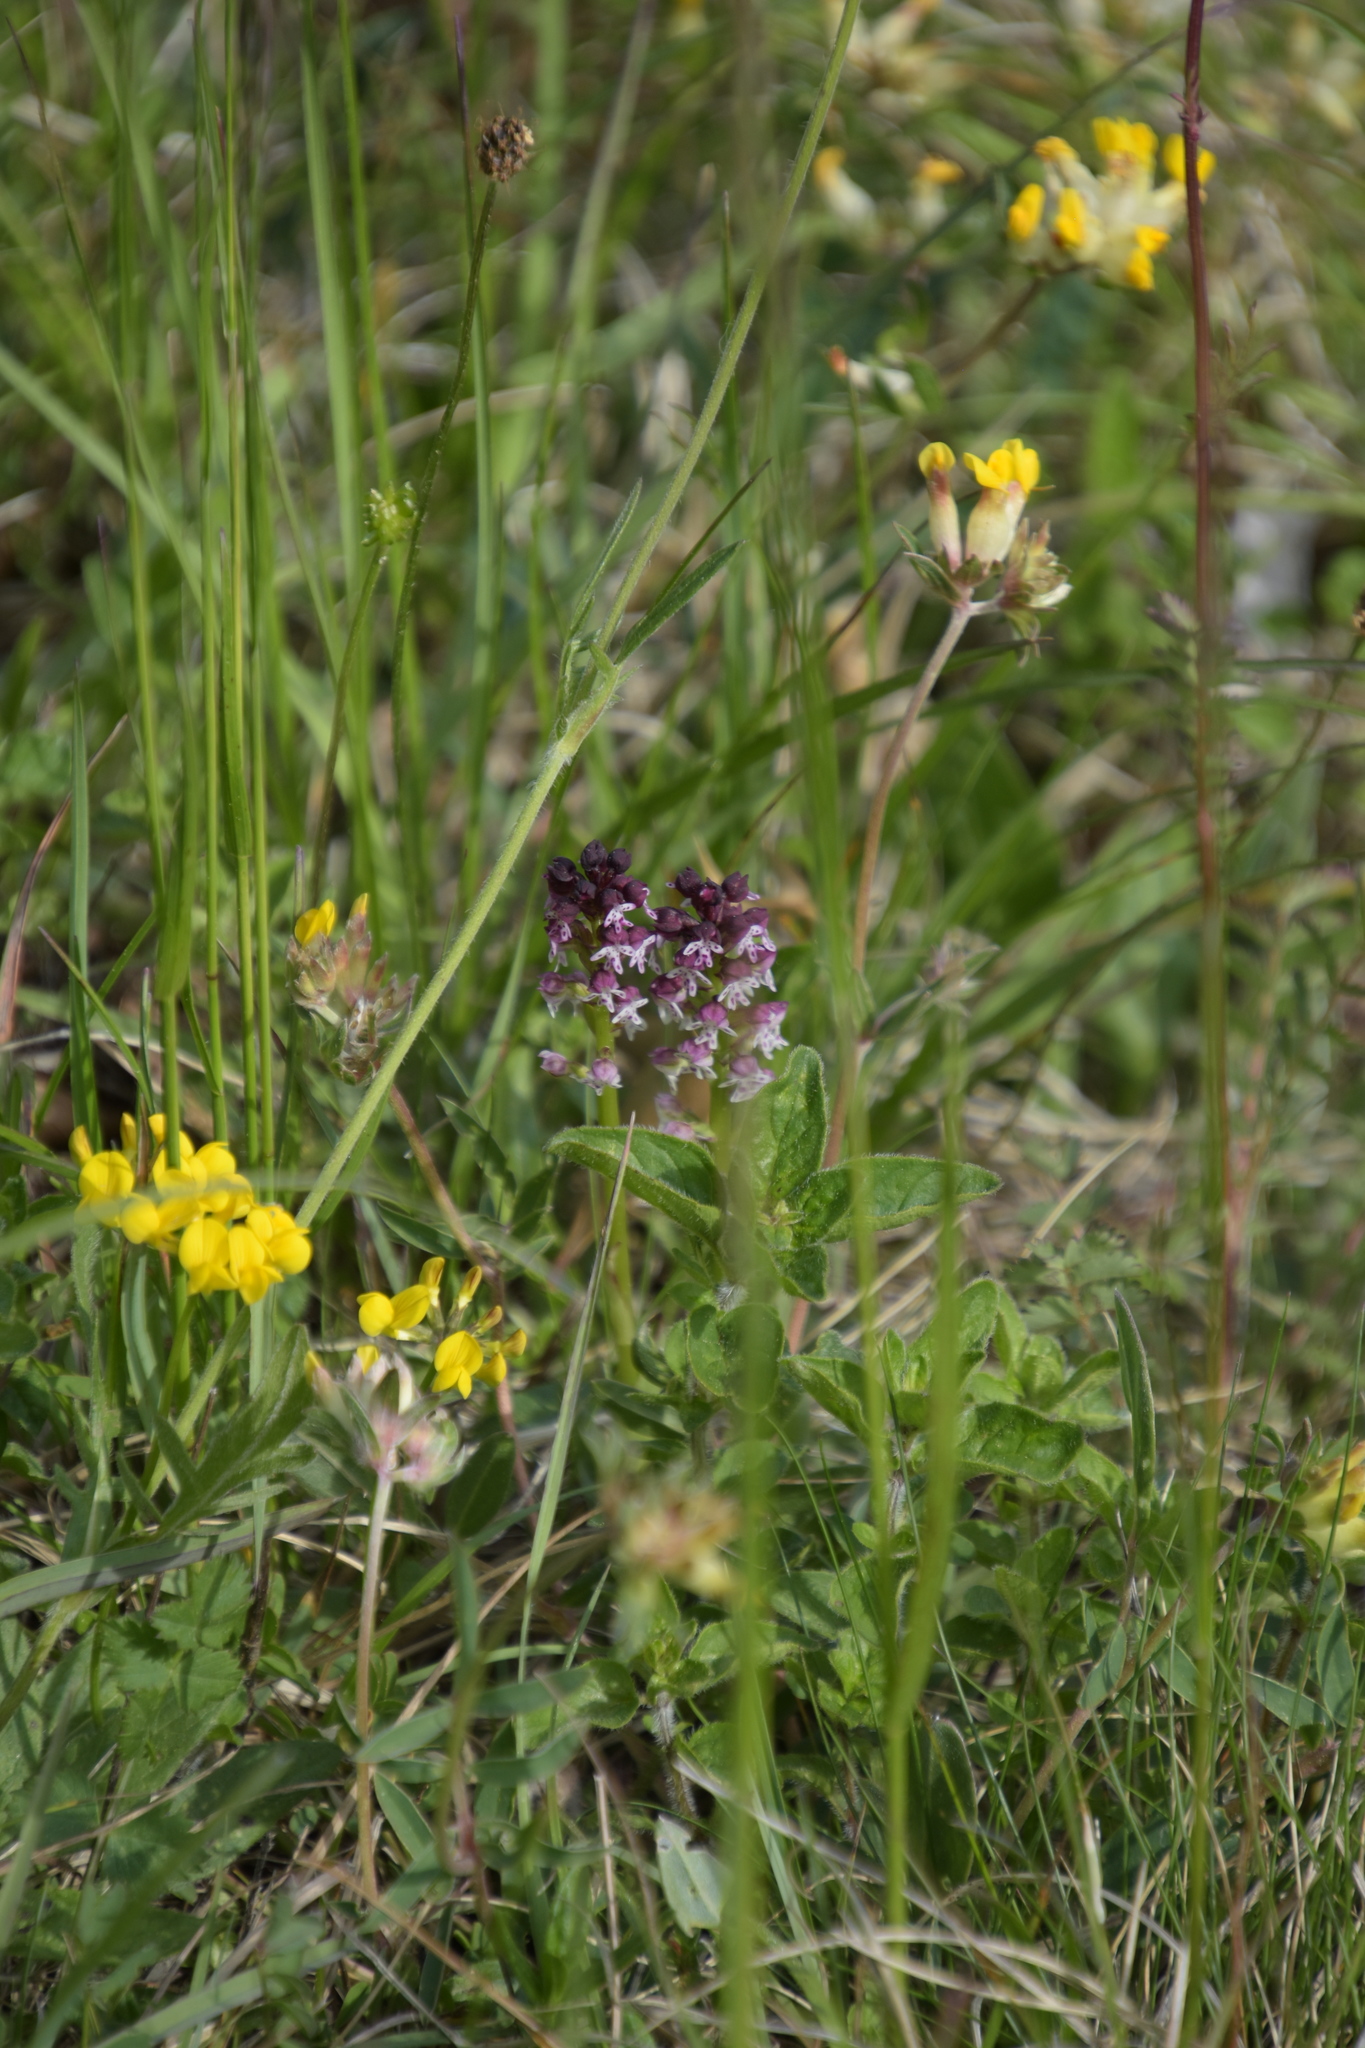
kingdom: Plantae
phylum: Tracheophyta
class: Liliopsida
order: Asparagales
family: Orchidaceae
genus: Neotinea
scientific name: Neotinea ustulata
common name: Burnt orchid
